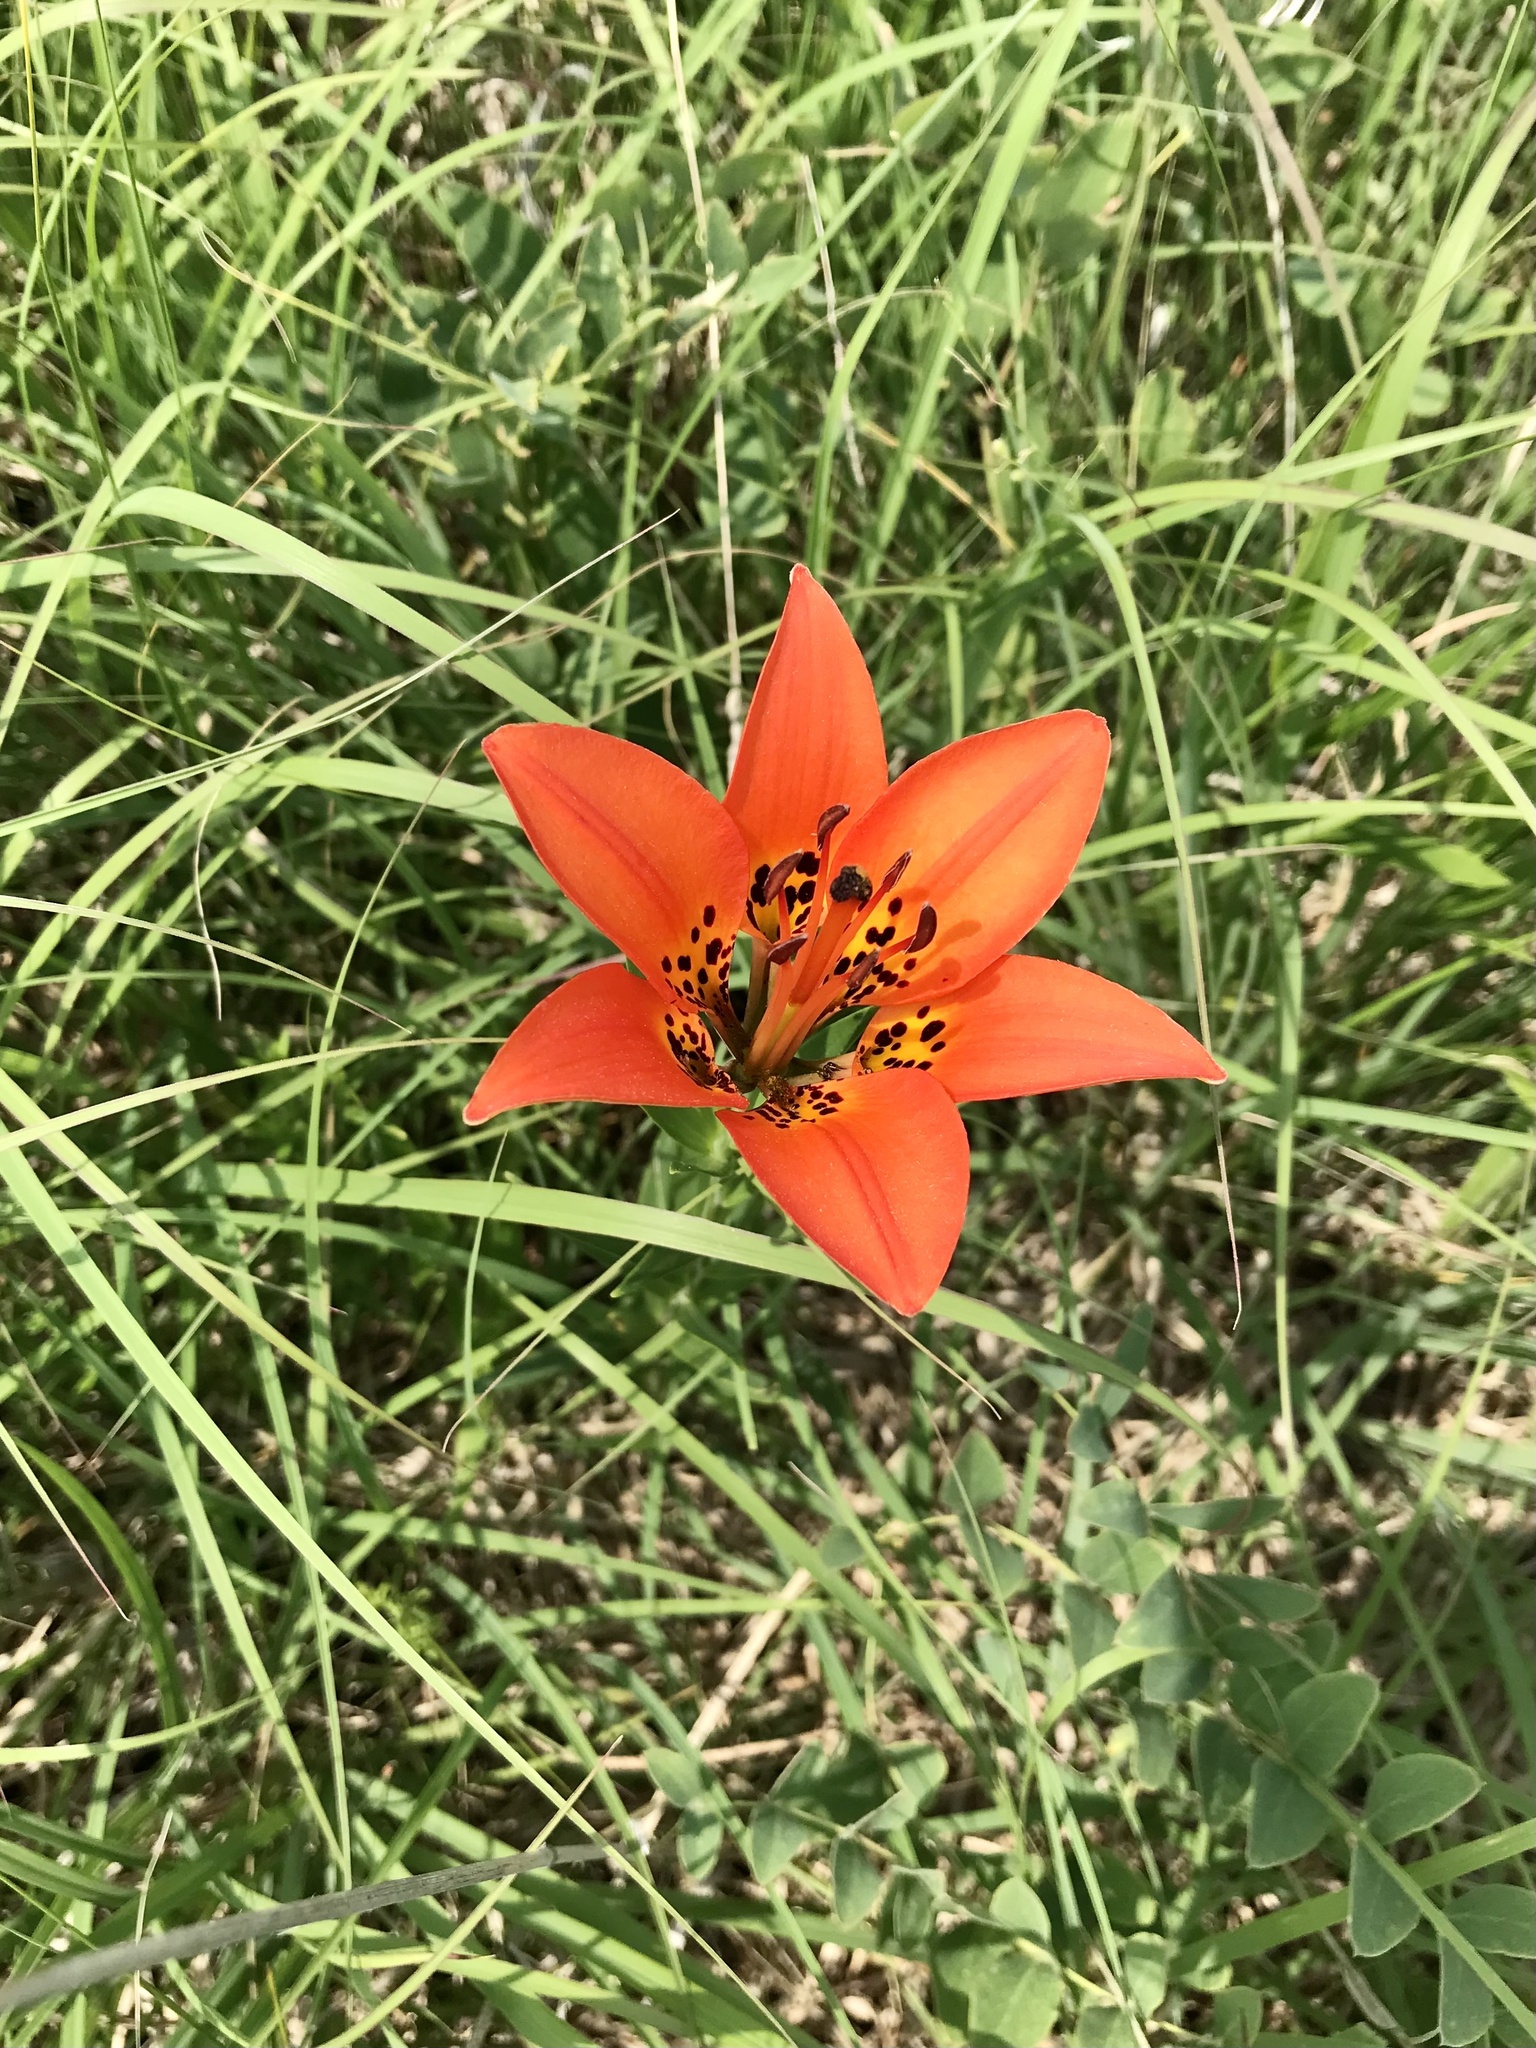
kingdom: Plantae
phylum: Tracheophyta
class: Liliopsida
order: Liliales
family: Liliaceae
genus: Lilium
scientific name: Lilium philadelphicum
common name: Red lily
